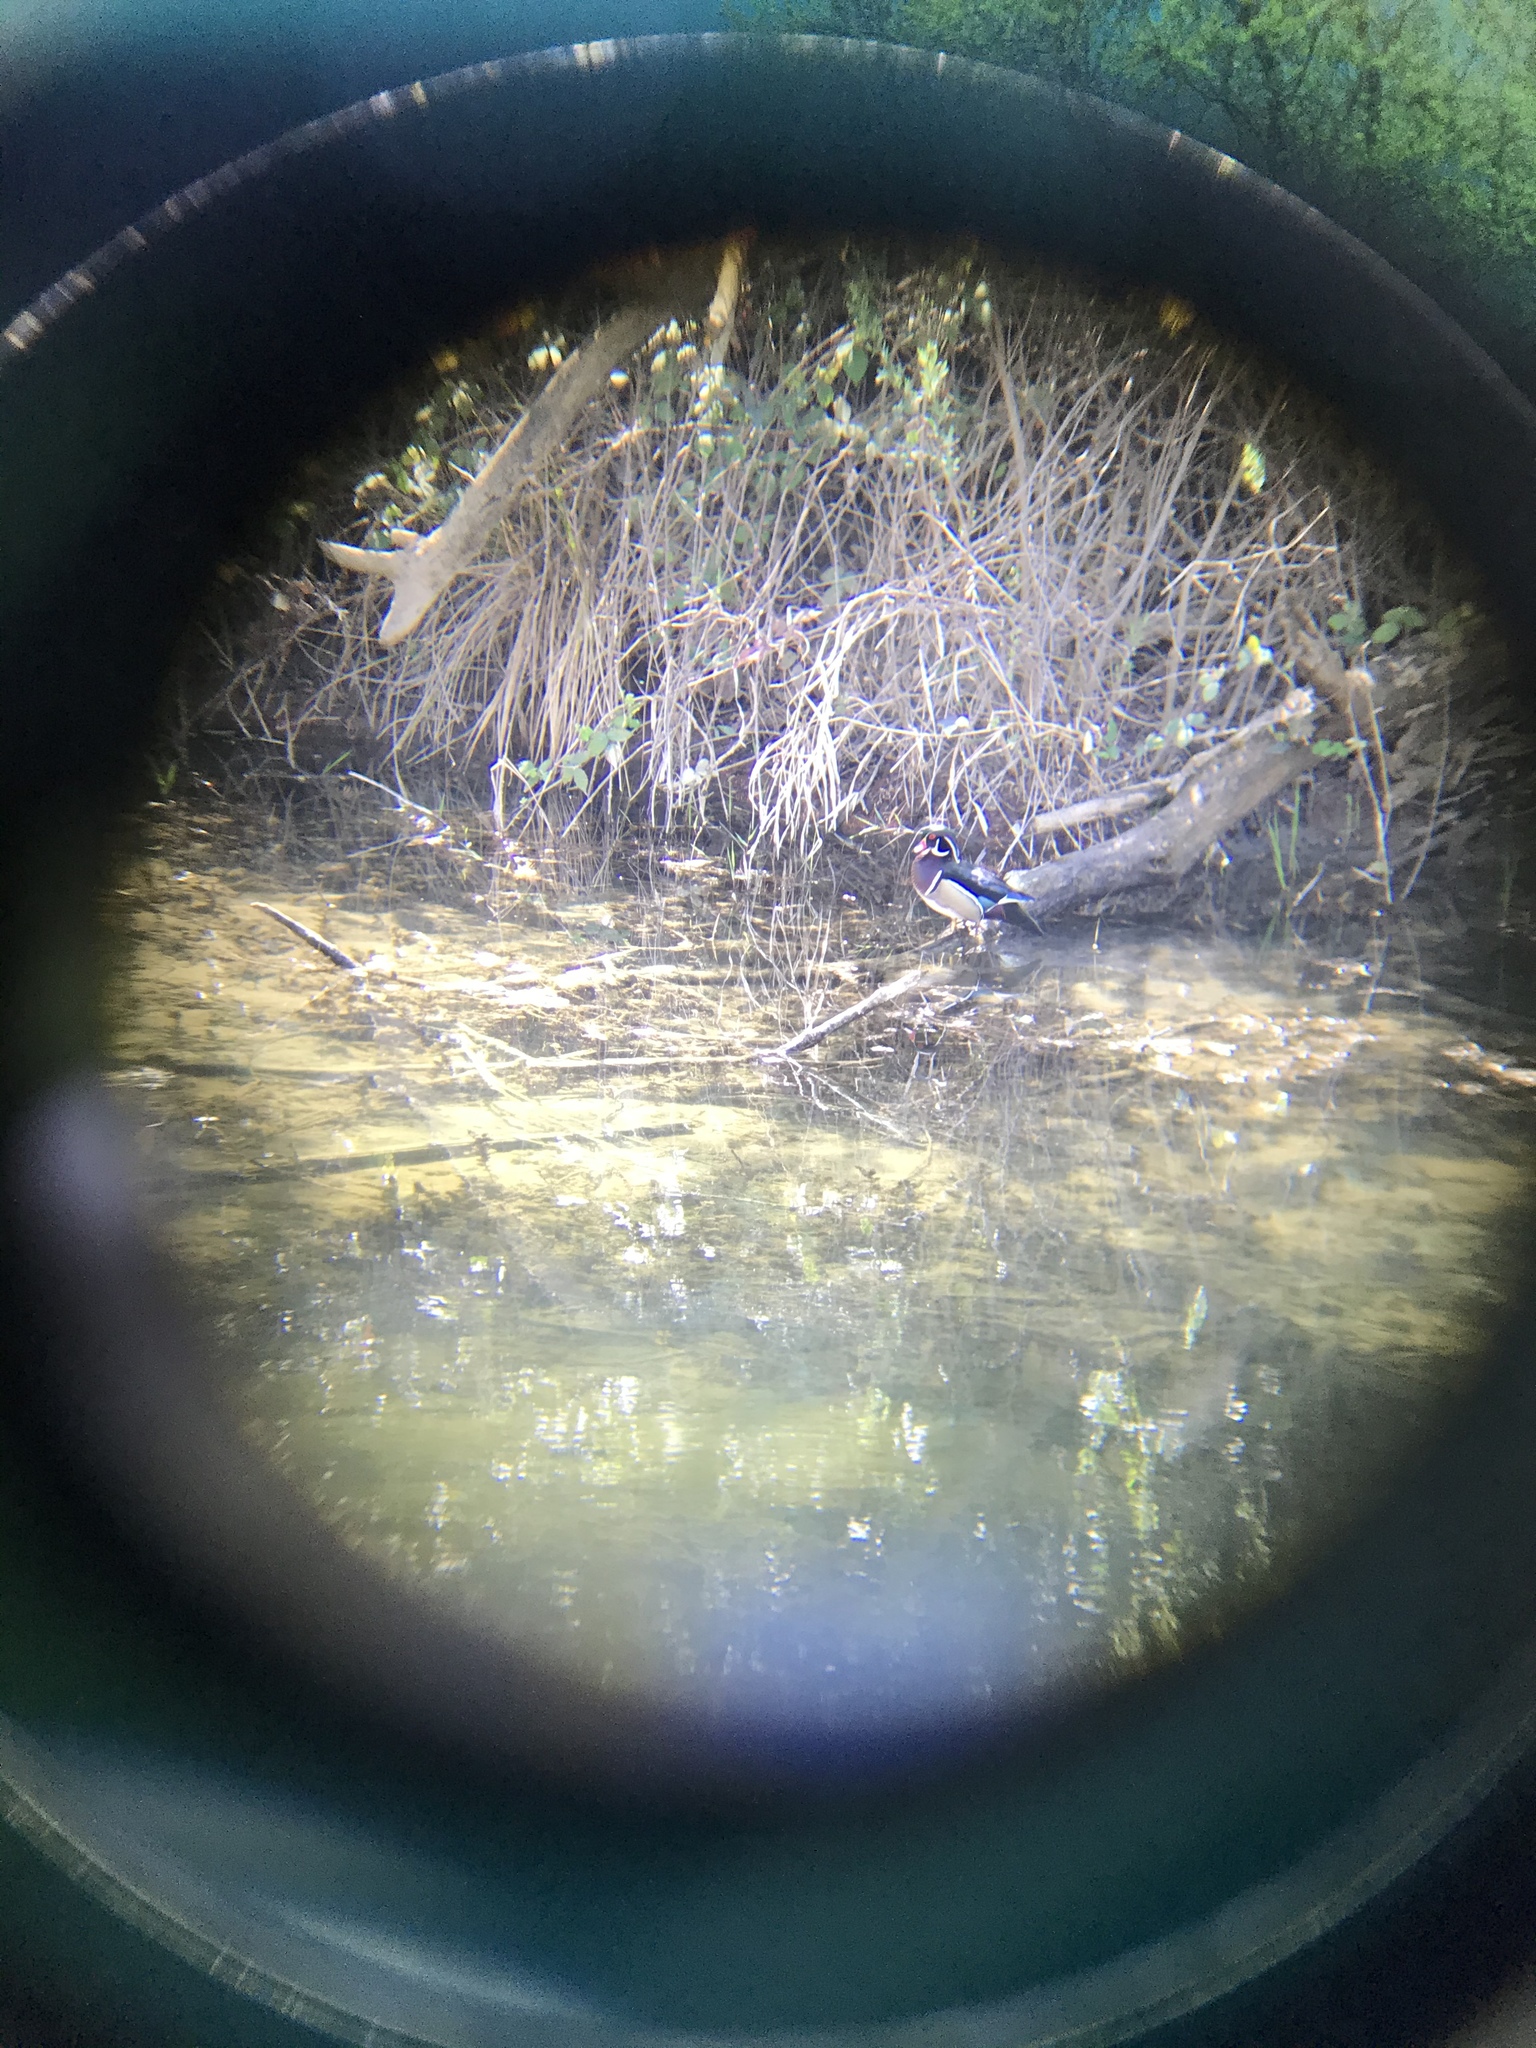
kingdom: Animalia
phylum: Chordata
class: Aves
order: Anseriformes
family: Anatidae
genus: Aix
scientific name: Aix sponsa
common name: Wood duck
